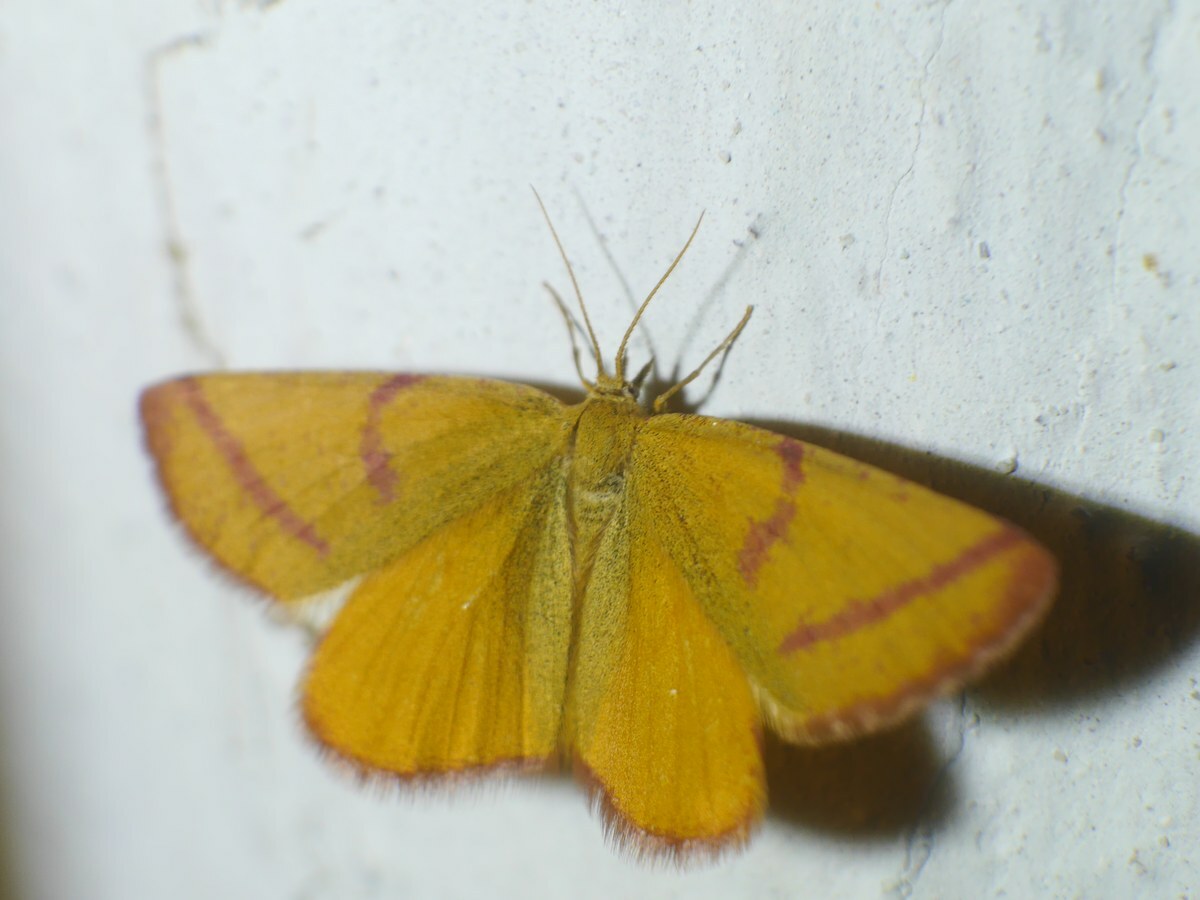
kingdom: Animalia
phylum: Arthropoda
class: Insecta
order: Lepidoptera
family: Geometridae
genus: Lythria
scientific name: Lythria purpuraria
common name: Purple-barred yellow
